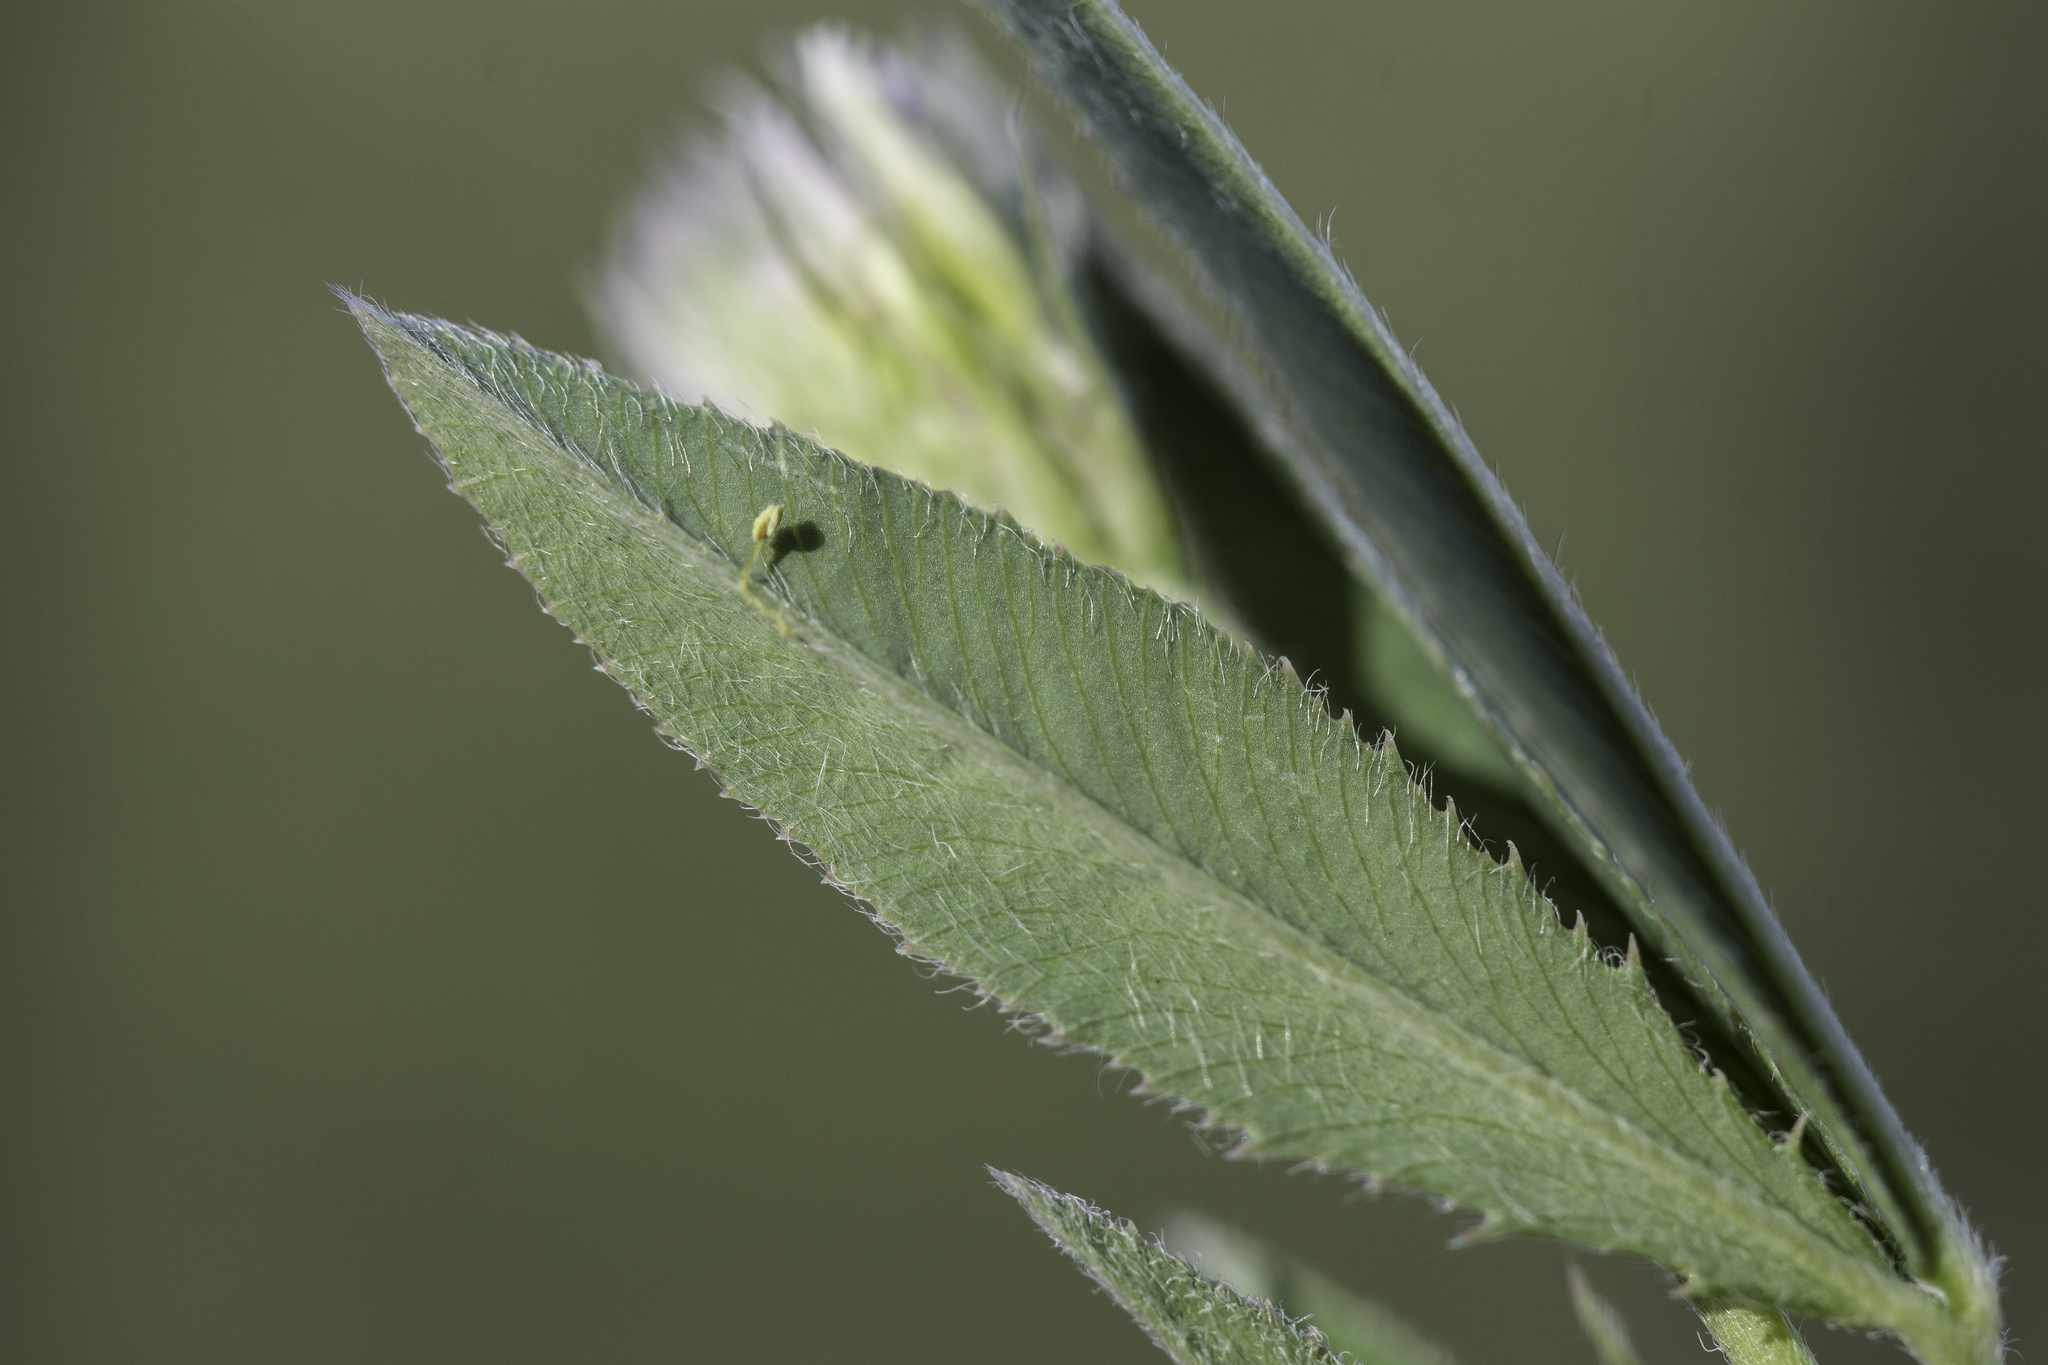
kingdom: Plantae
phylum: Tracheophyta
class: Magnoliopsida
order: Fabales
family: Fabaceae
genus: Trifolium
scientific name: Trifolium longipes
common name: Long-stalk clover
